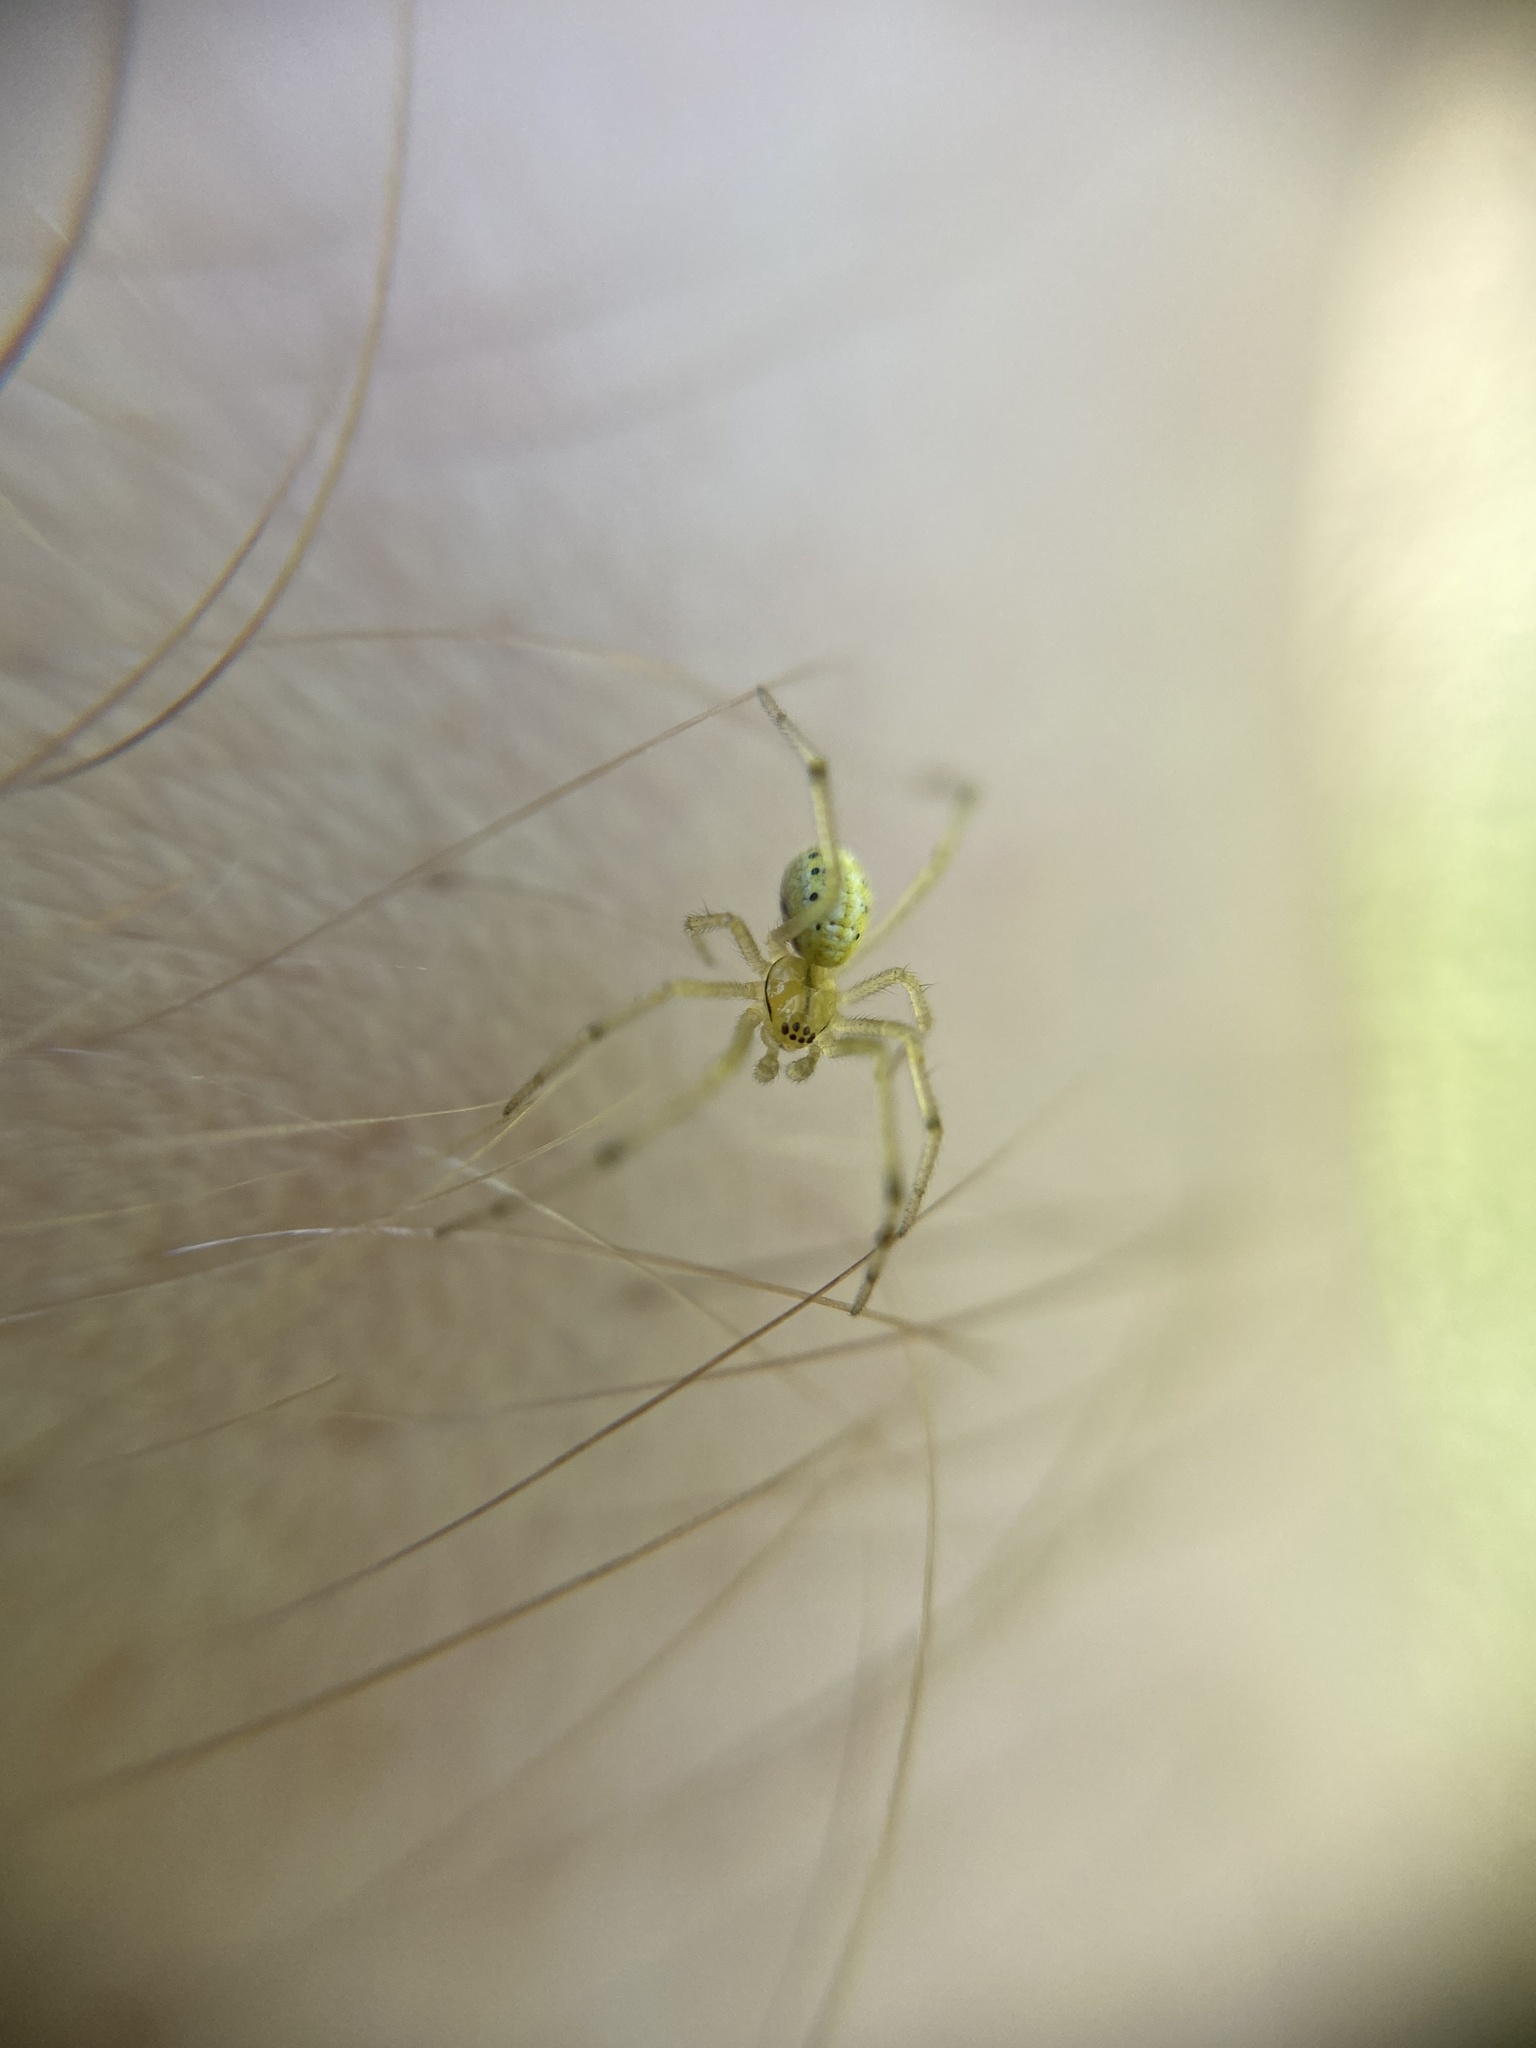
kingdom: Animalia
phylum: Arthropoda
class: Arachnida
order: Araneae
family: Theridiidae
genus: Enoplognatha
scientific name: Enoplognatha ovata
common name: Common candy-striped spider
